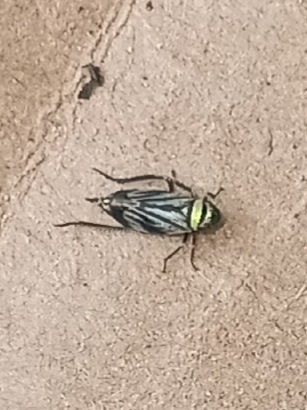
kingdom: Animalia
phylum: Arthropoda
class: Insecta
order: Hemiptera
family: Cicadellidae
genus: Stirellus
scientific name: Stirellus bicolor
